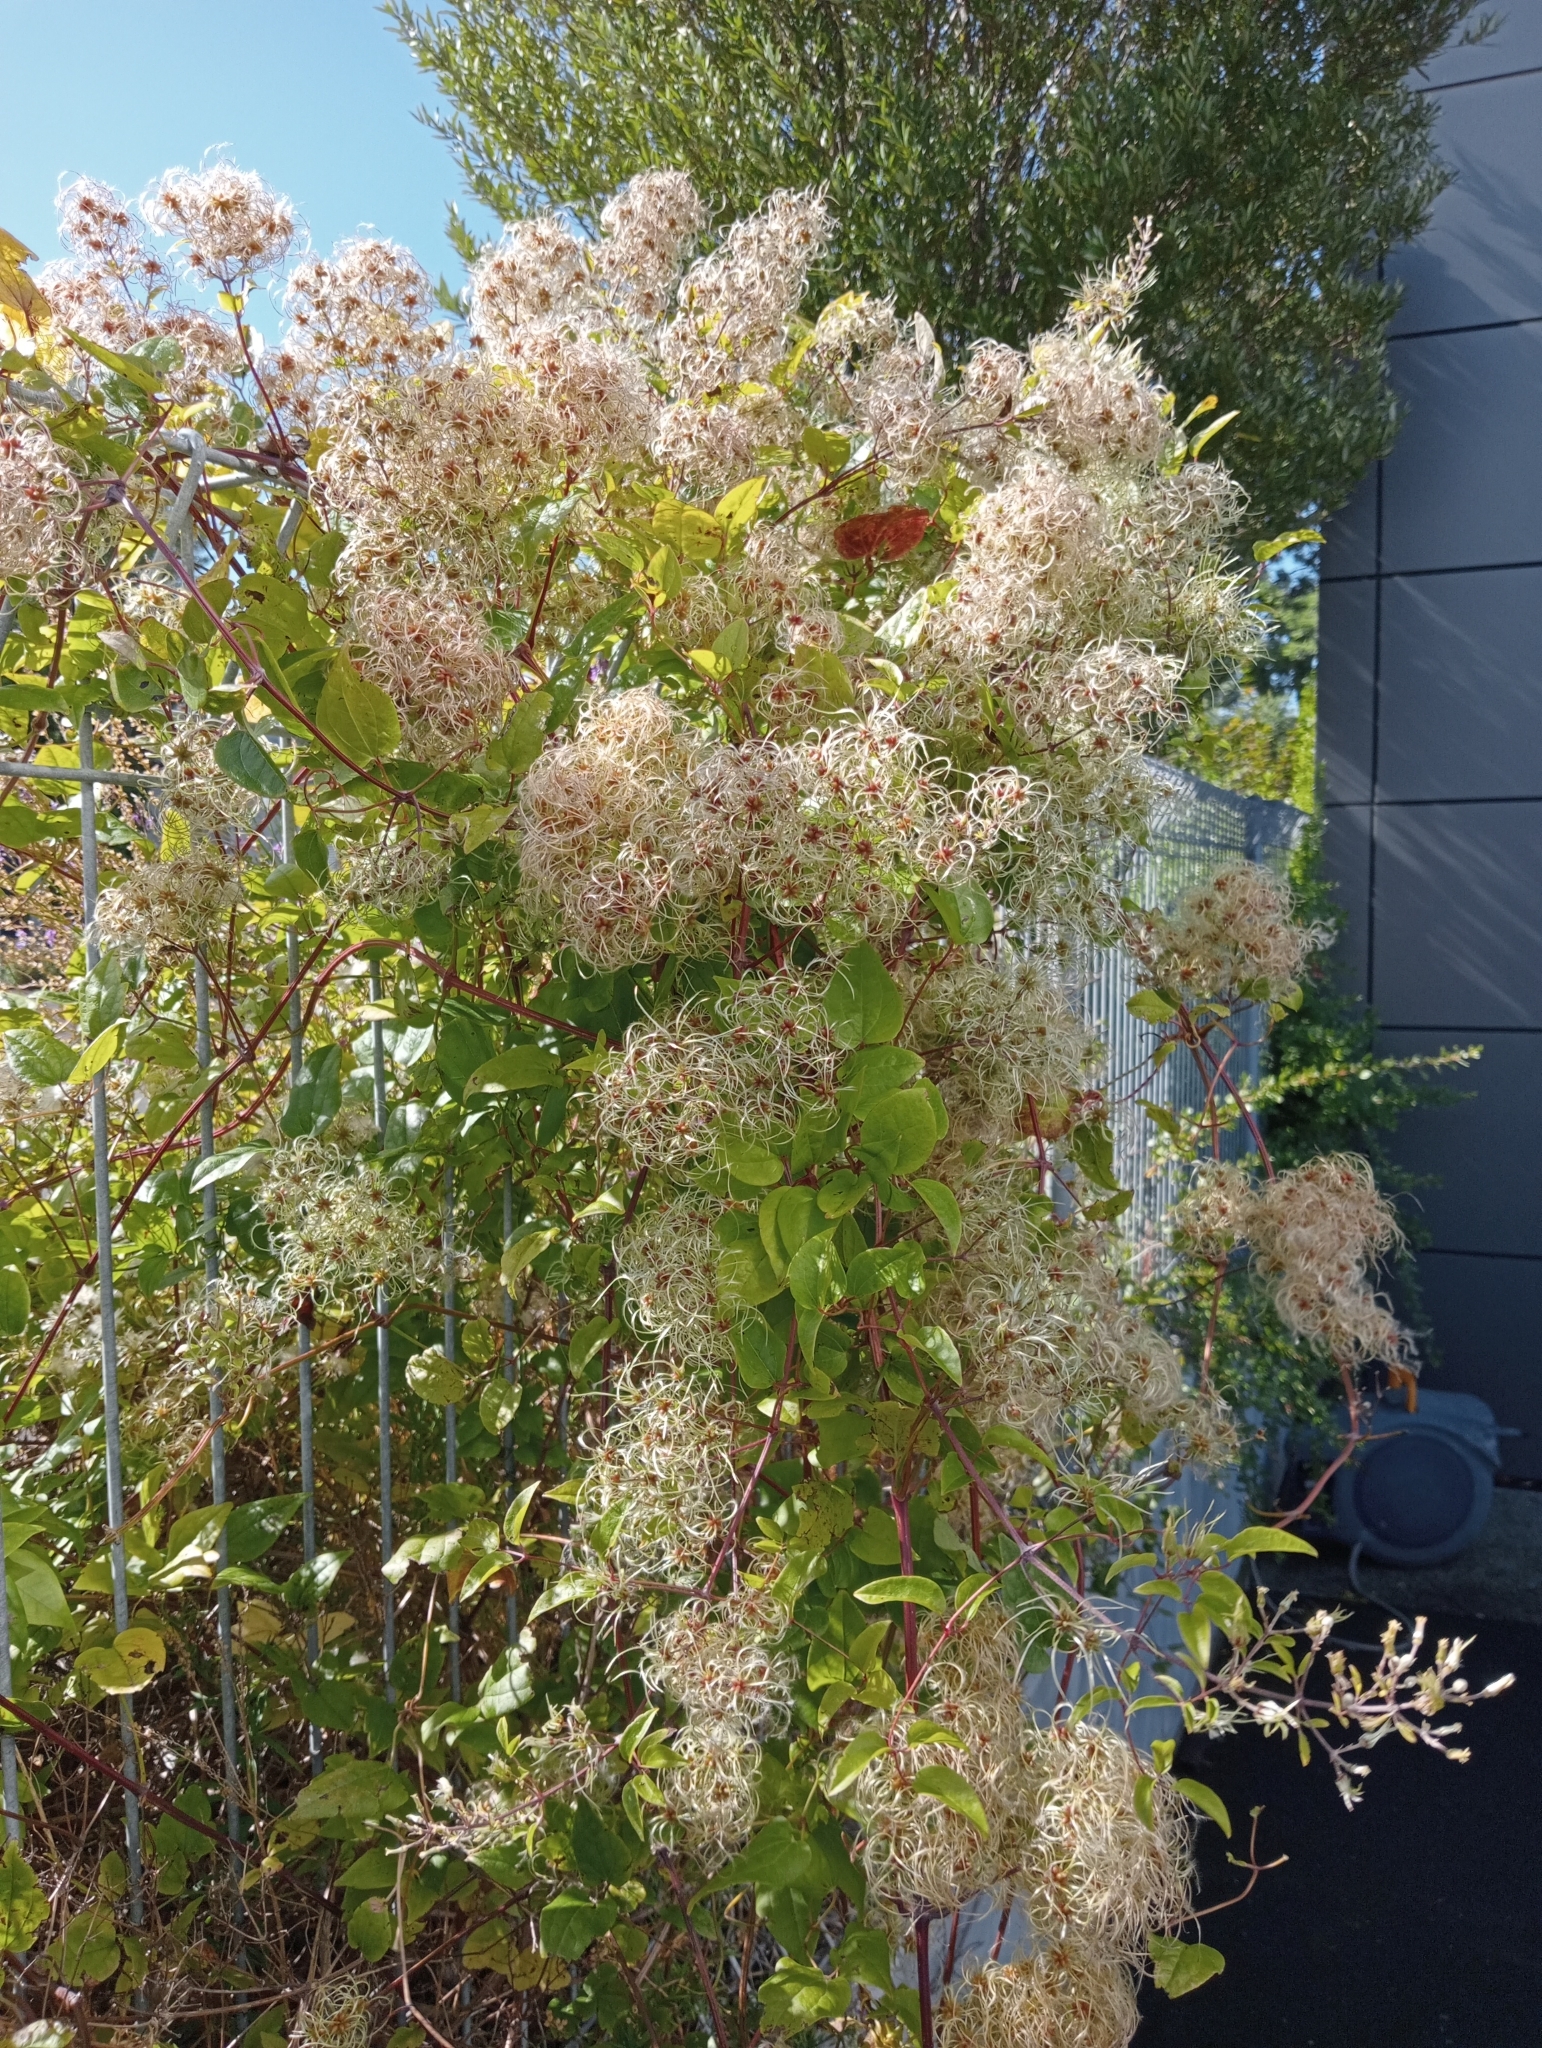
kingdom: Plantae
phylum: Tracheophyta
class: Magnoliopsida
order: Ranunculales
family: Ranunculaceae
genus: Clematis
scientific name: Clematis vitalba
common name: Evergreen clematis
